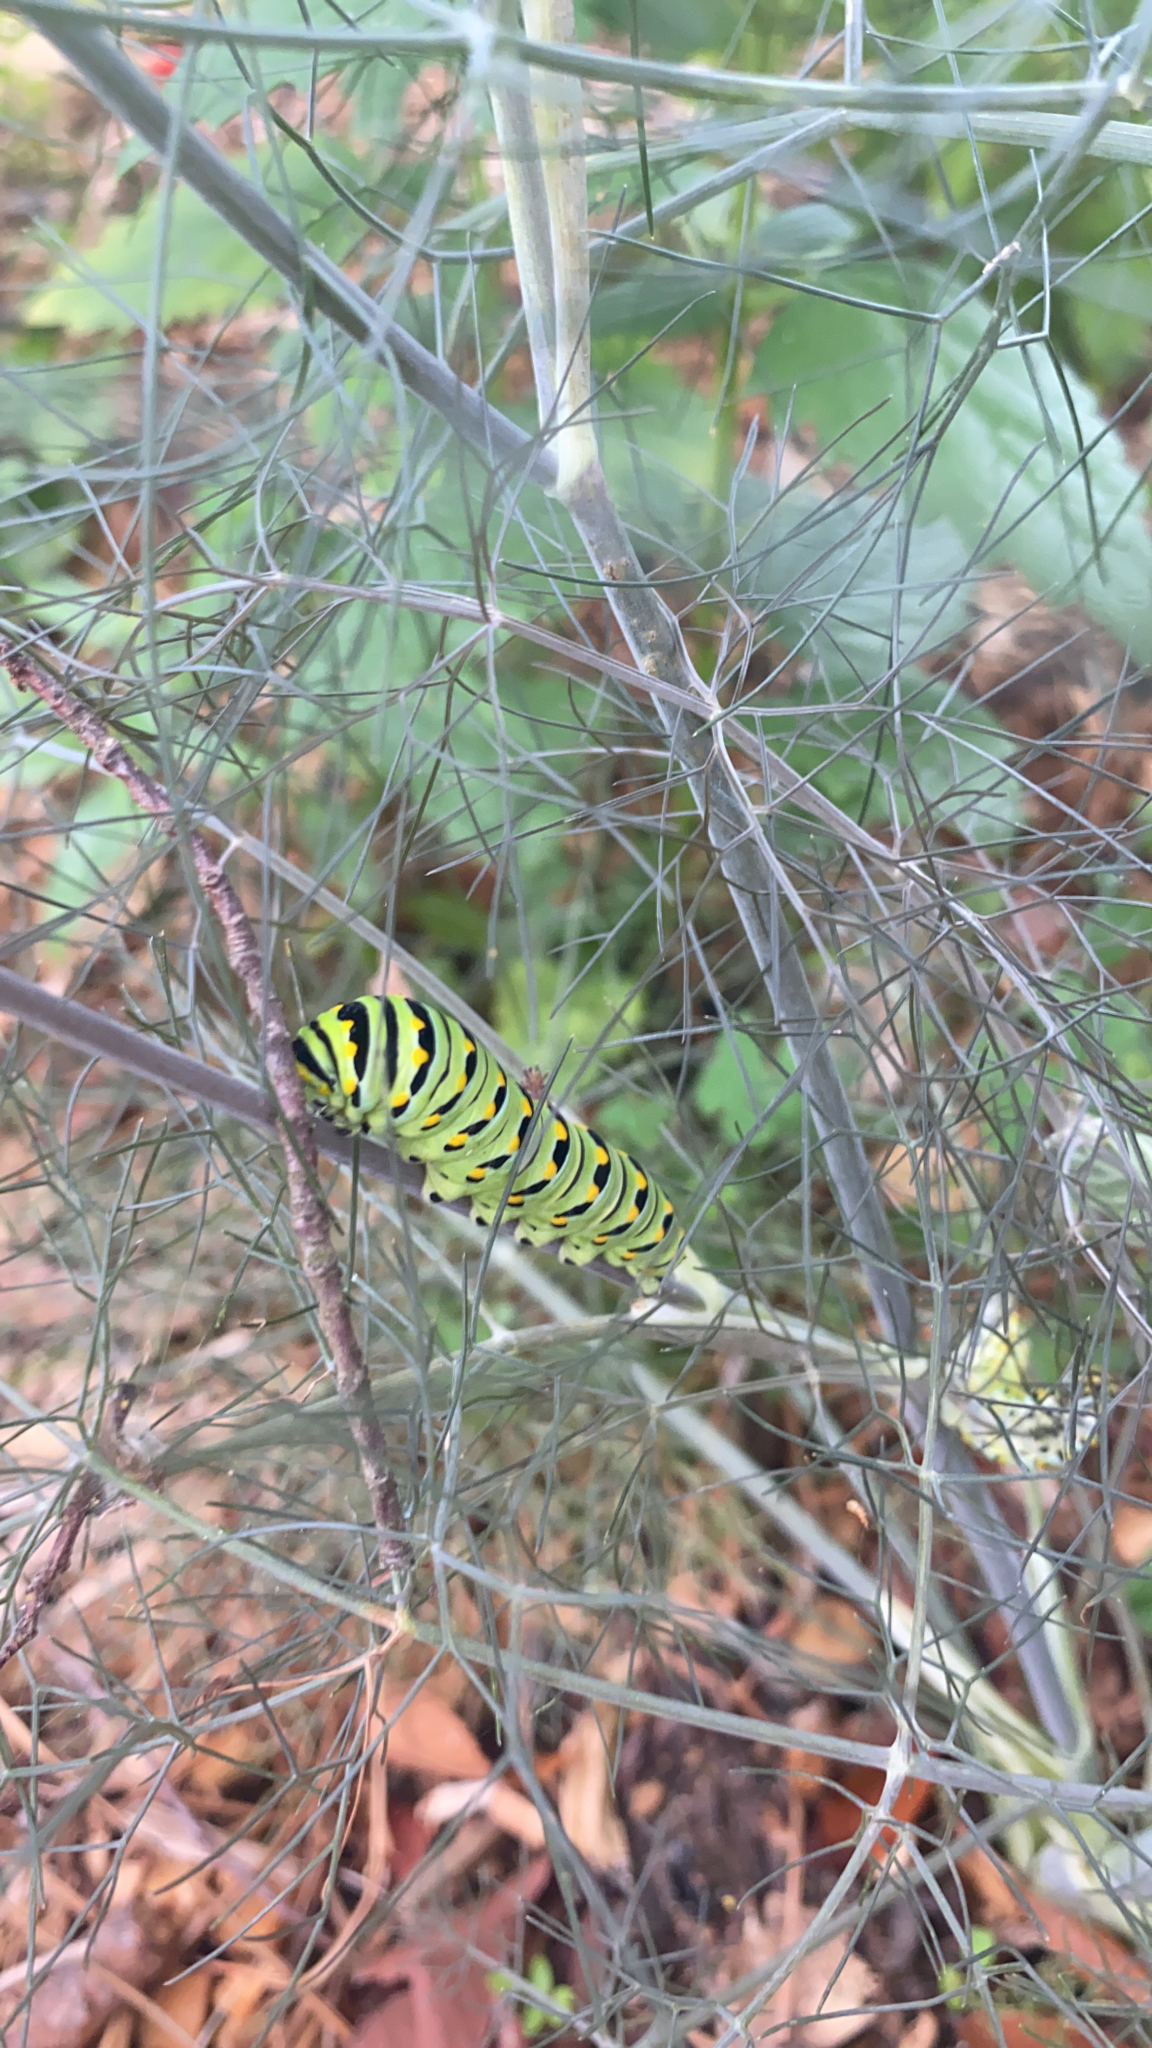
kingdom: Animalia
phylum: Arthropoda
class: Insecta
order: Lepidoptera
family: Papilionidae
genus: Papilio
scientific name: Papilio polyxenes
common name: Black swallowtail
